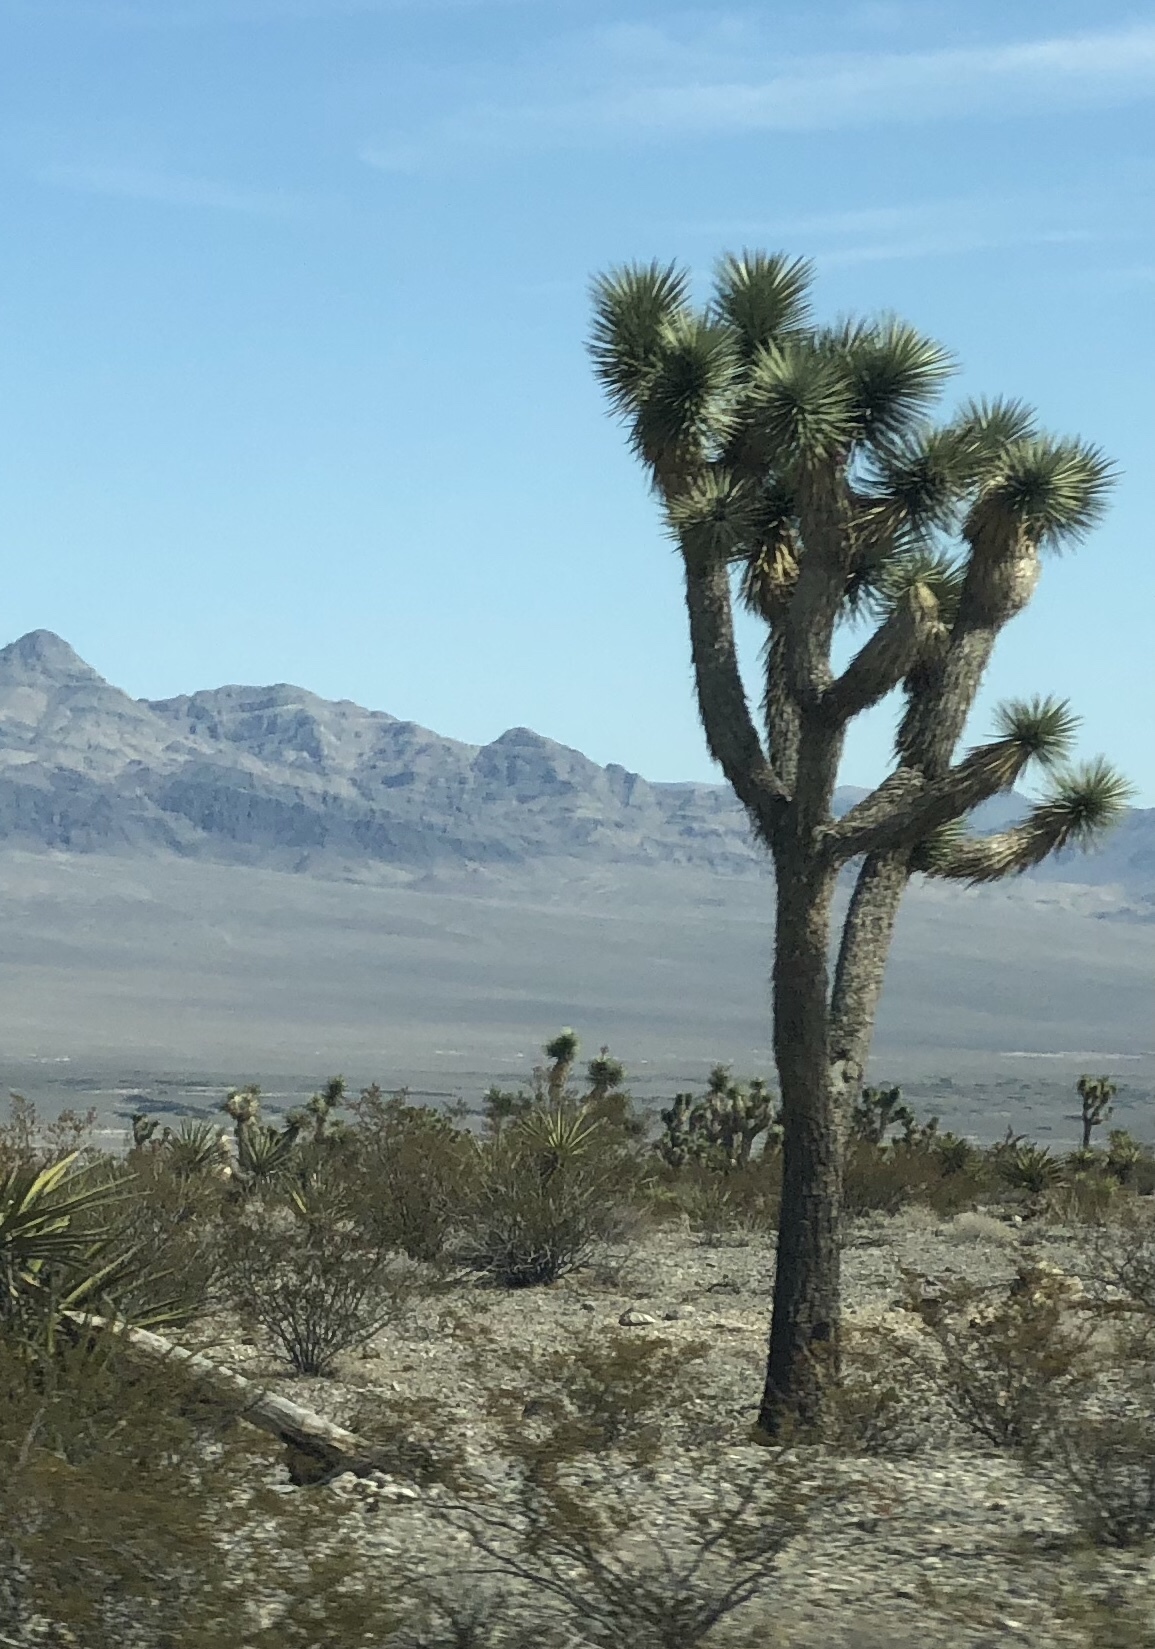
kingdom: Plantae
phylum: Tracheophyta
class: Liliopsida
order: Asparagales
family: Asparagaceae
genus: Yucca
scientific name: Yucca brevifolia
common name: Joshua tree
